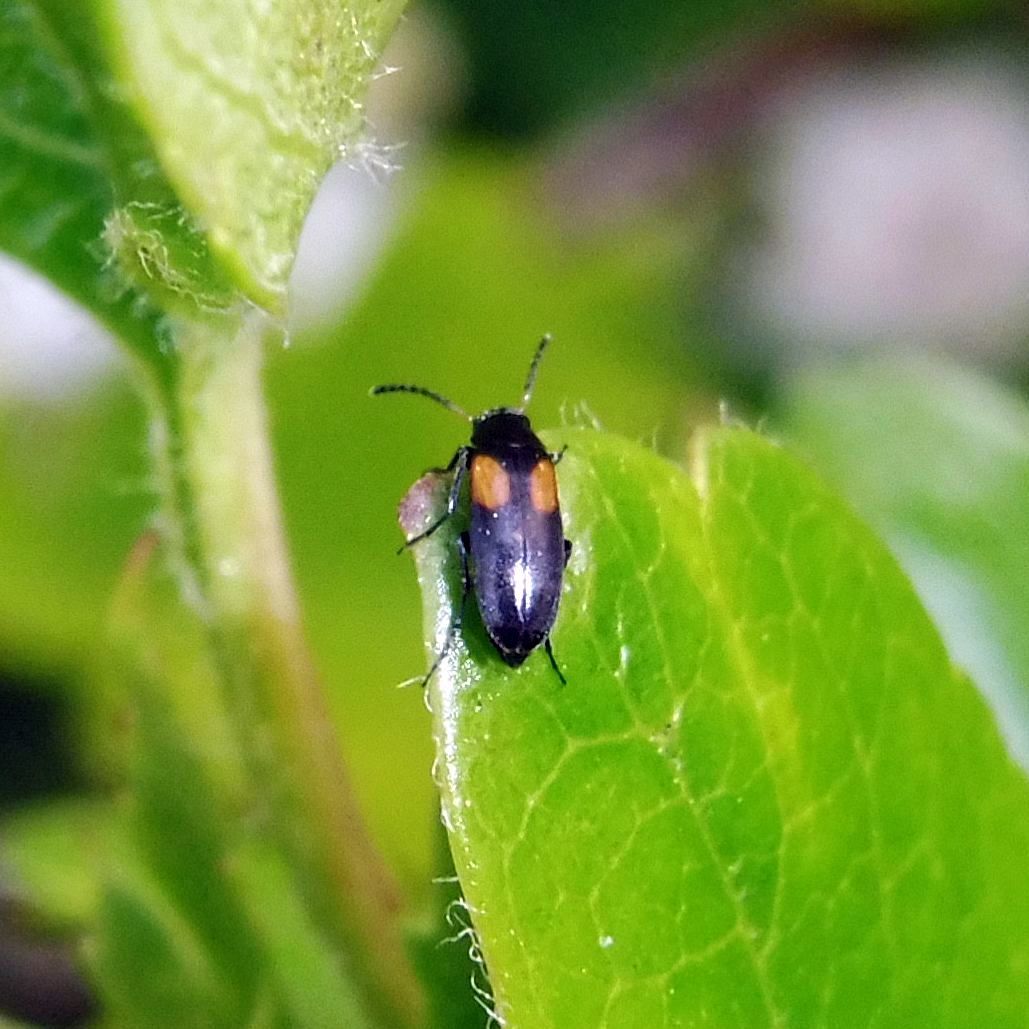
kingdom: Animalia
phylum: Arthropoda
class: Insecta
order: Coleoptera
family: Scraptiidae
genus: Anaspis
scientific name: Anaspis fasciata
